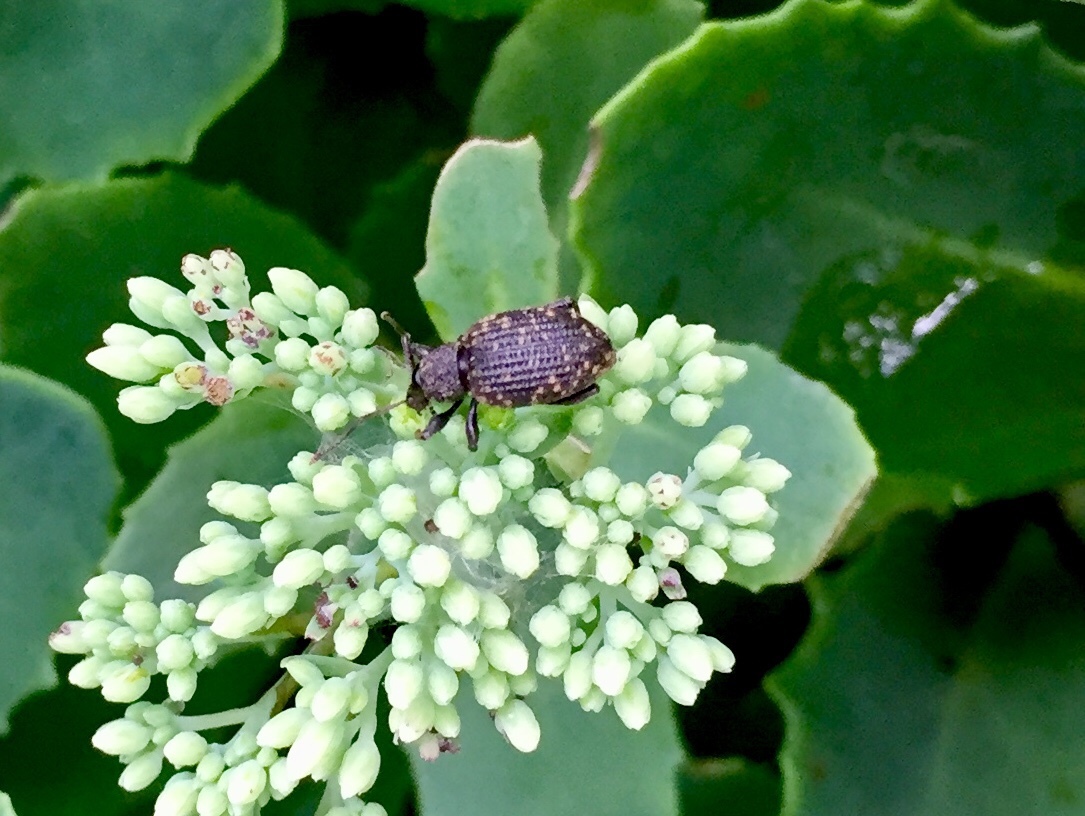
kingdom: Animalia
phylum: Arthropoda
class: Insecta
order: Coleoptera
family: Curculionidae
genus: Otiorhynchus
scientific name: Otiorhynchus sulcatus
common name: Black vine weevil
